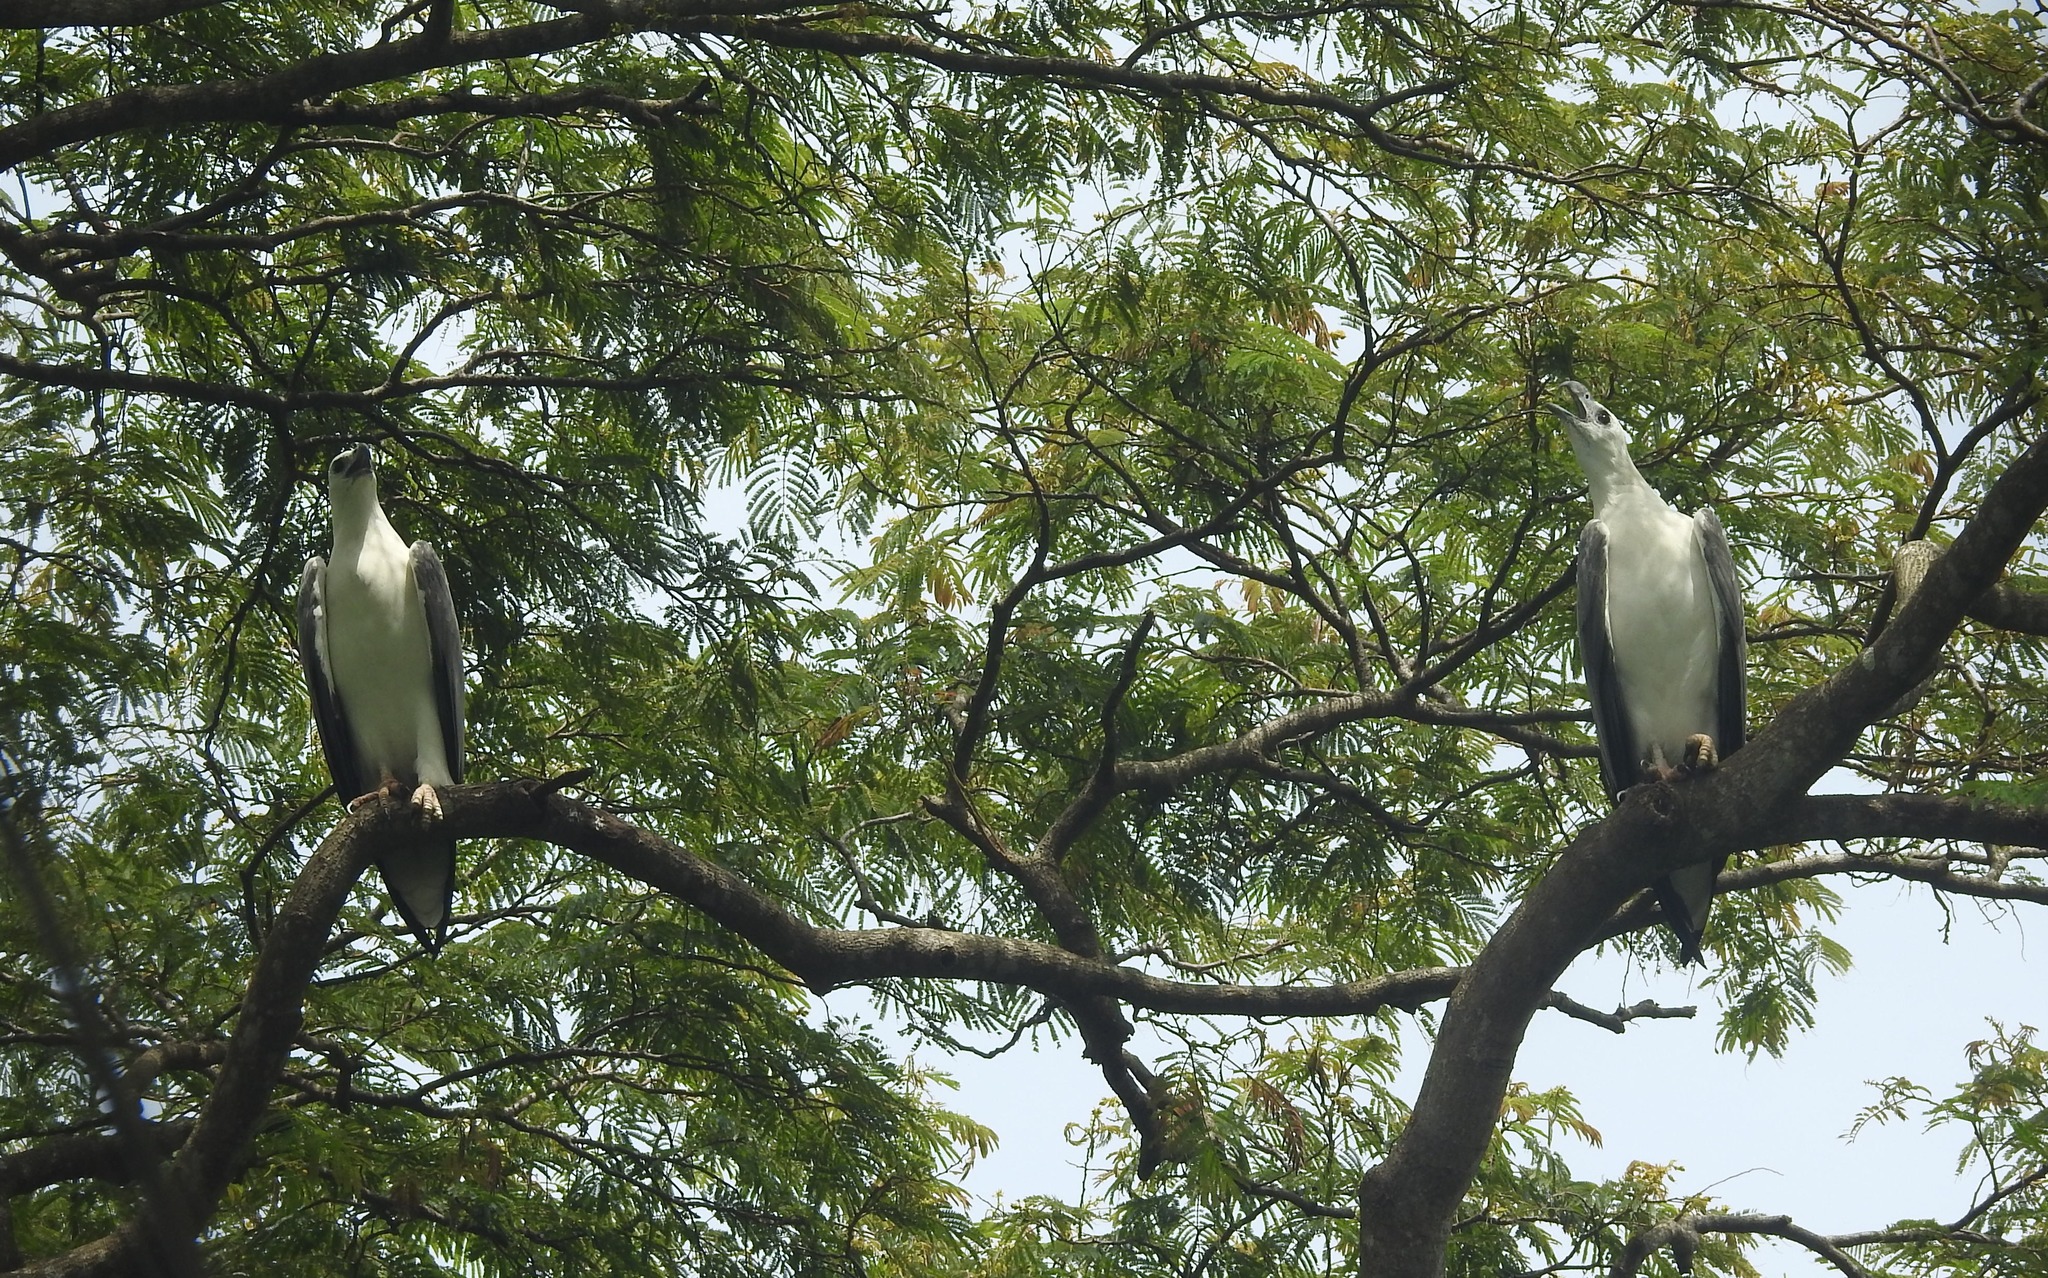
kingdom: Animalia
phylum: Chordata
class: Aves
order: Accipitriformes
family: Accipitridae
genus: Haliaeetus
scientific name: Haliaeetus leucogaster
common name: White-bellied sea eagle
